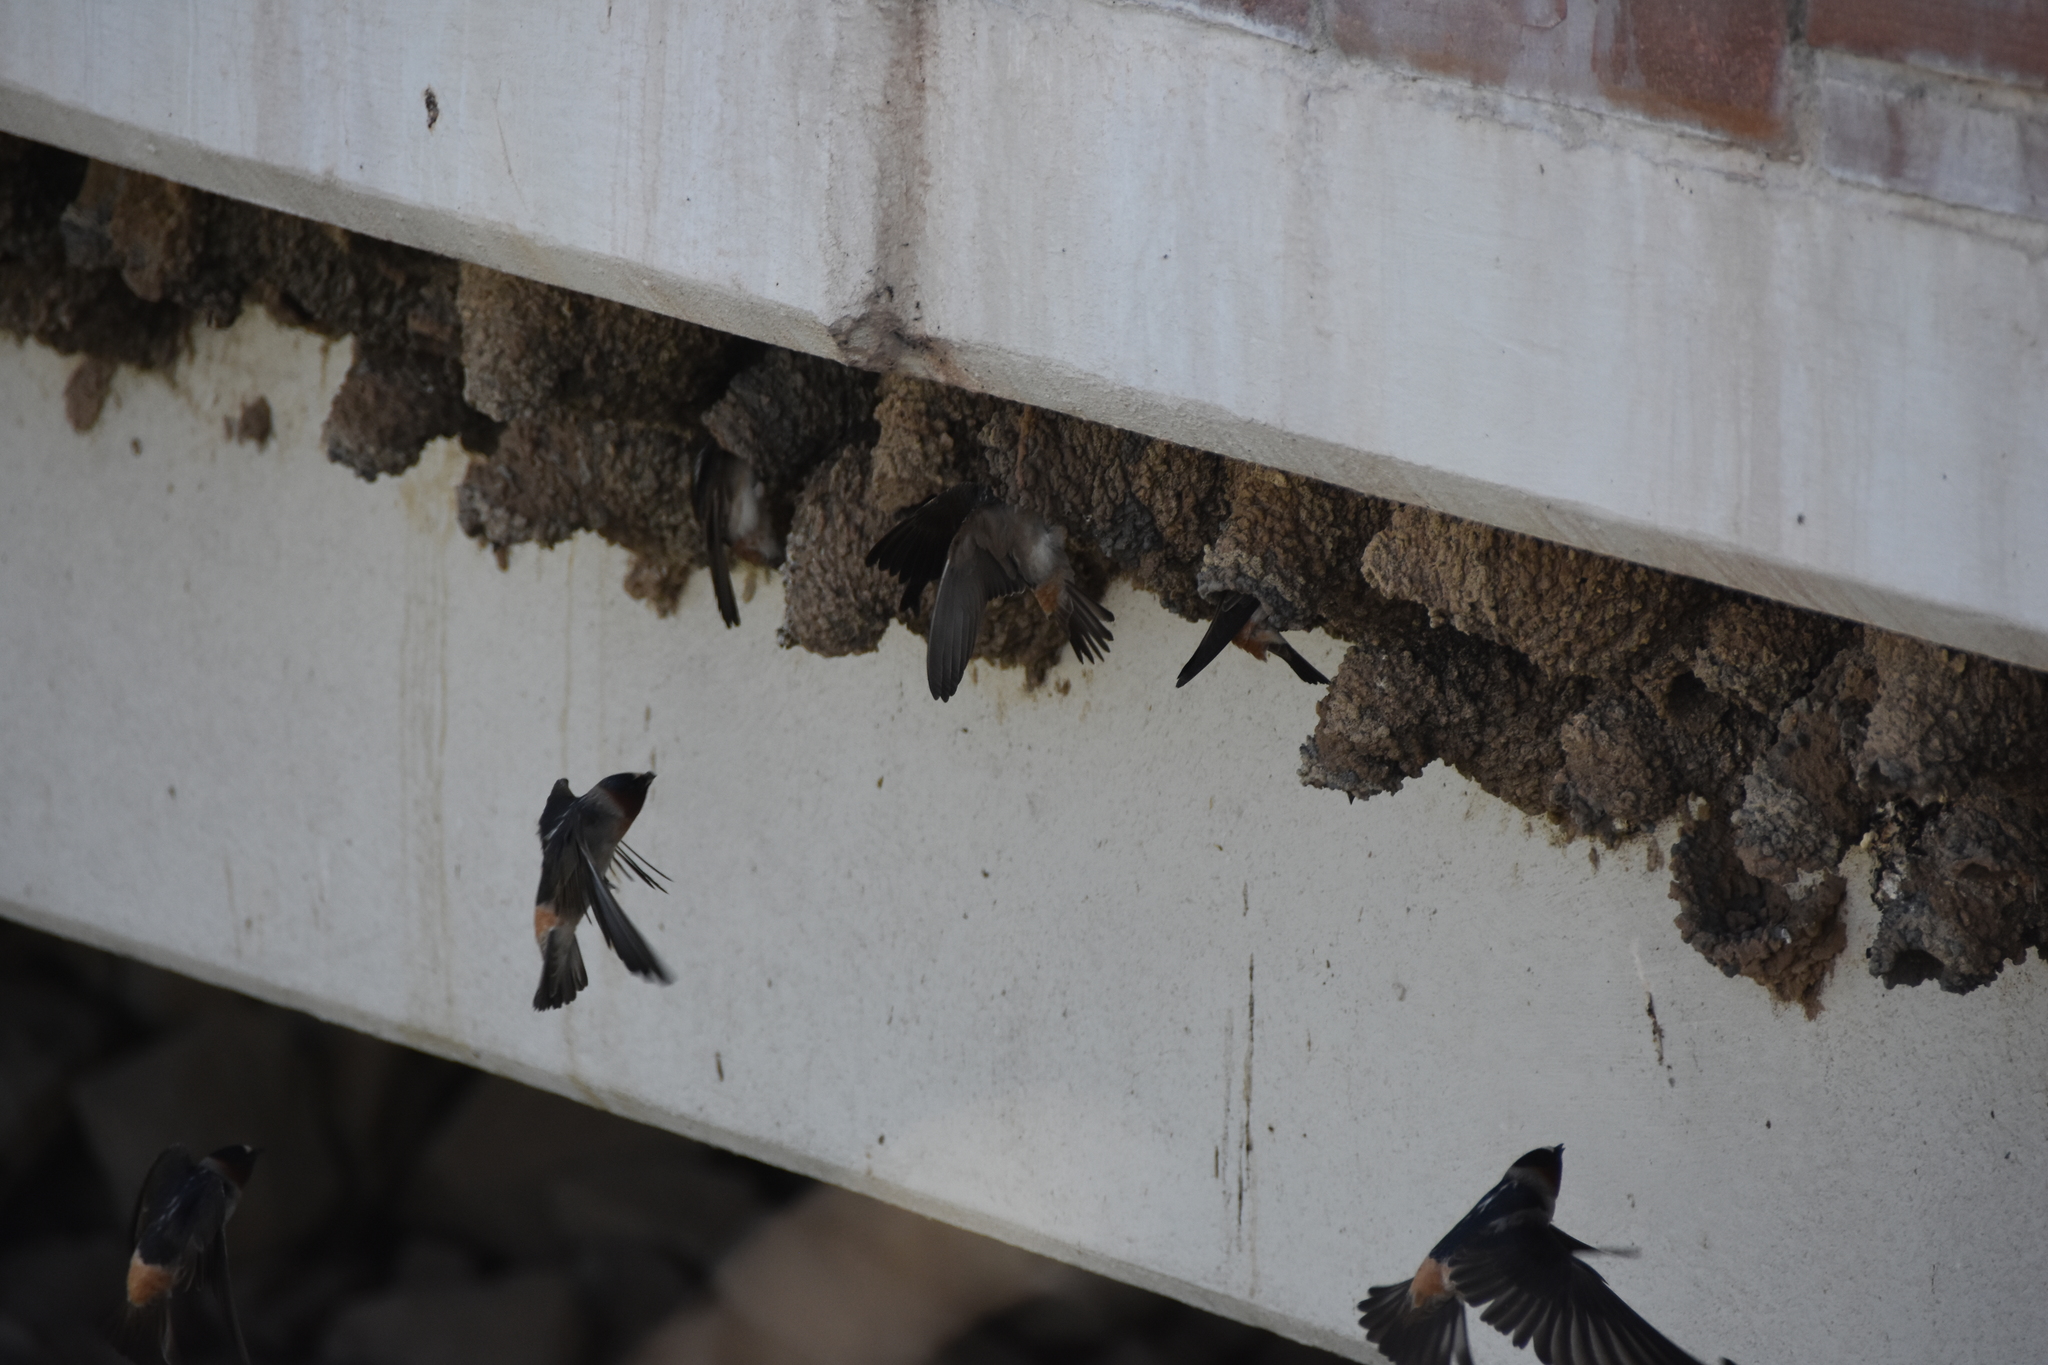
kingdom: Animalia
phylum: Chordata
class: Aves
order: Passeriformes
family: Hirundinidae
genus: Petrochelidon
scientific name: Petrochelidon pyrrhonota
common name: American cliff swallow
